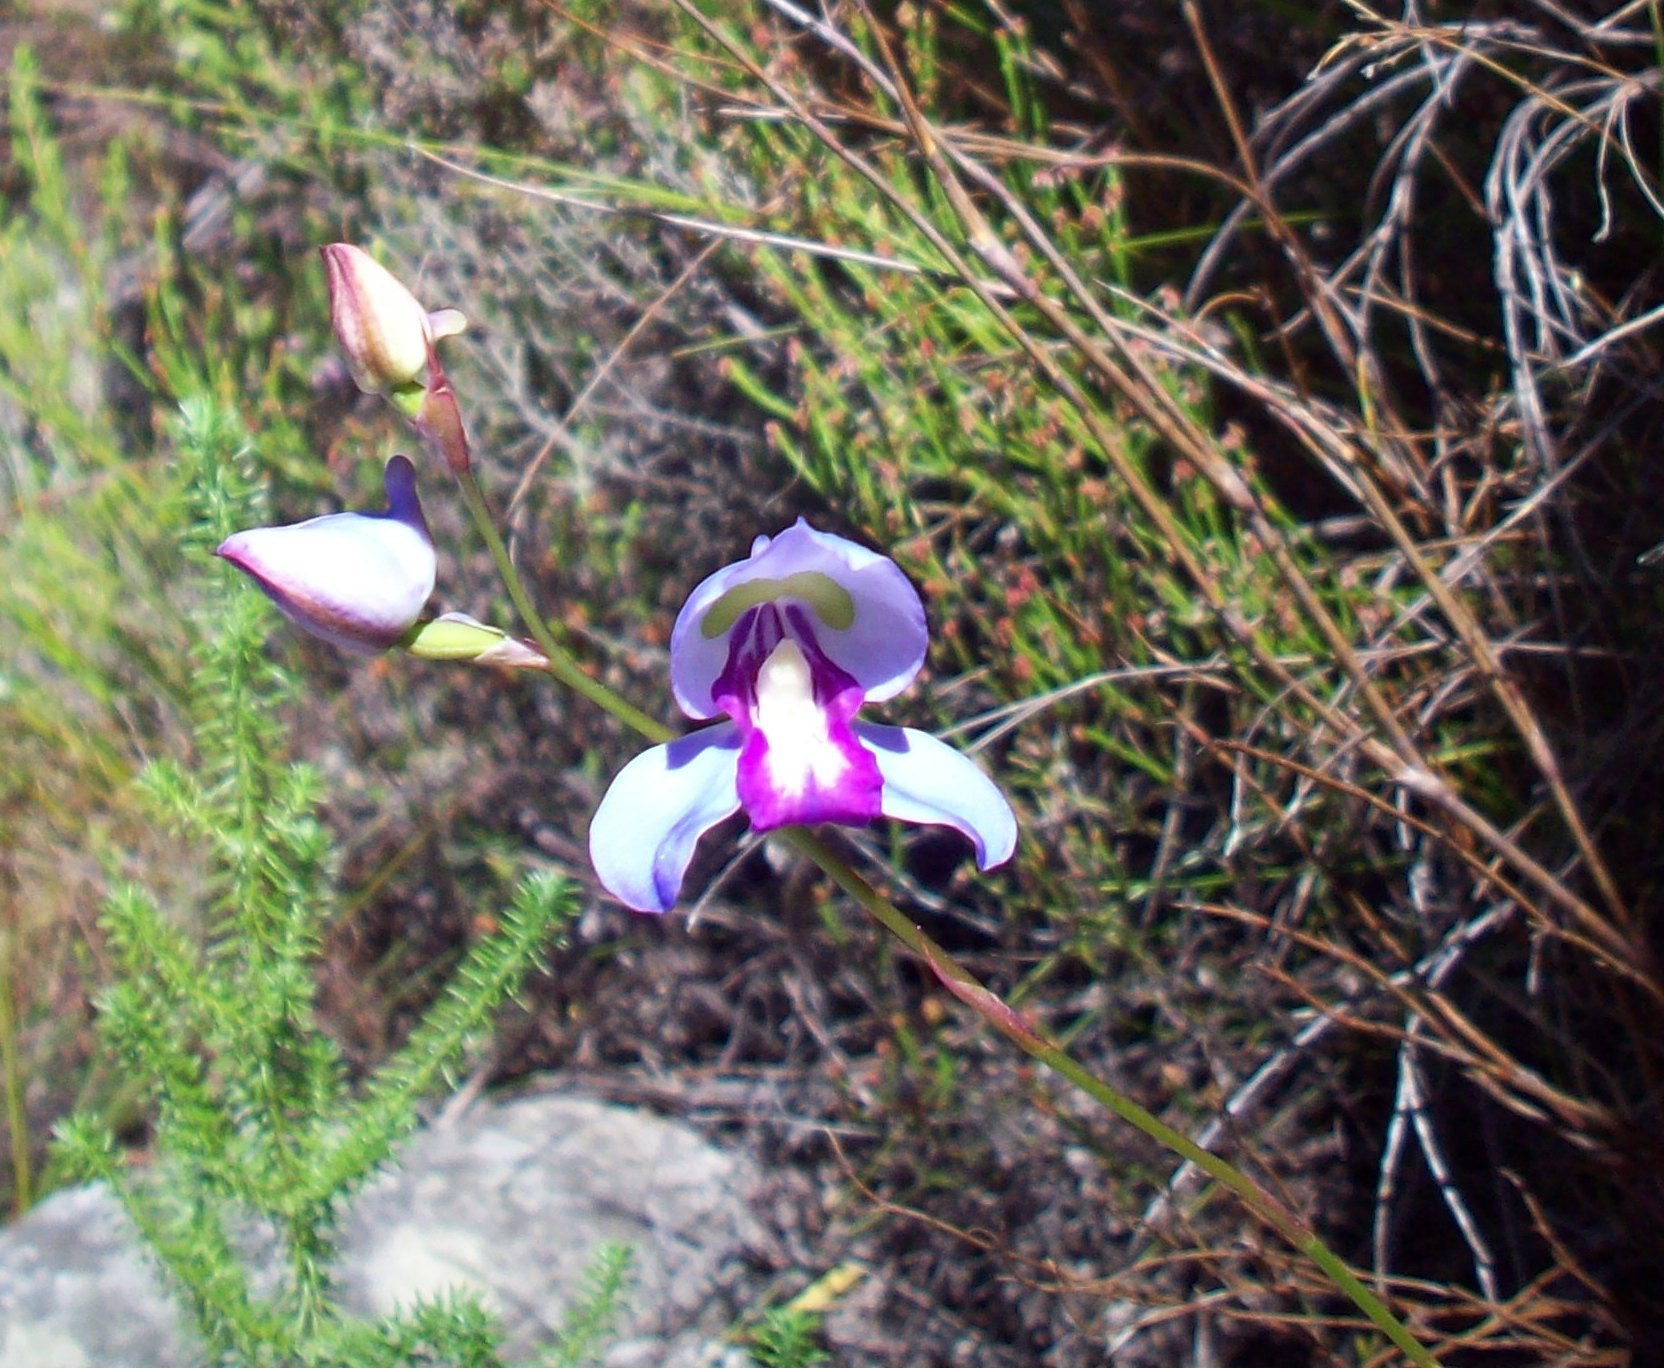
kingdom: Plantae
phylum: Tracheophyta
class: Liliopsida
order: Asparagales
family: Orchidaceae
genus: Disa
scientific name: Disa graminifolia
